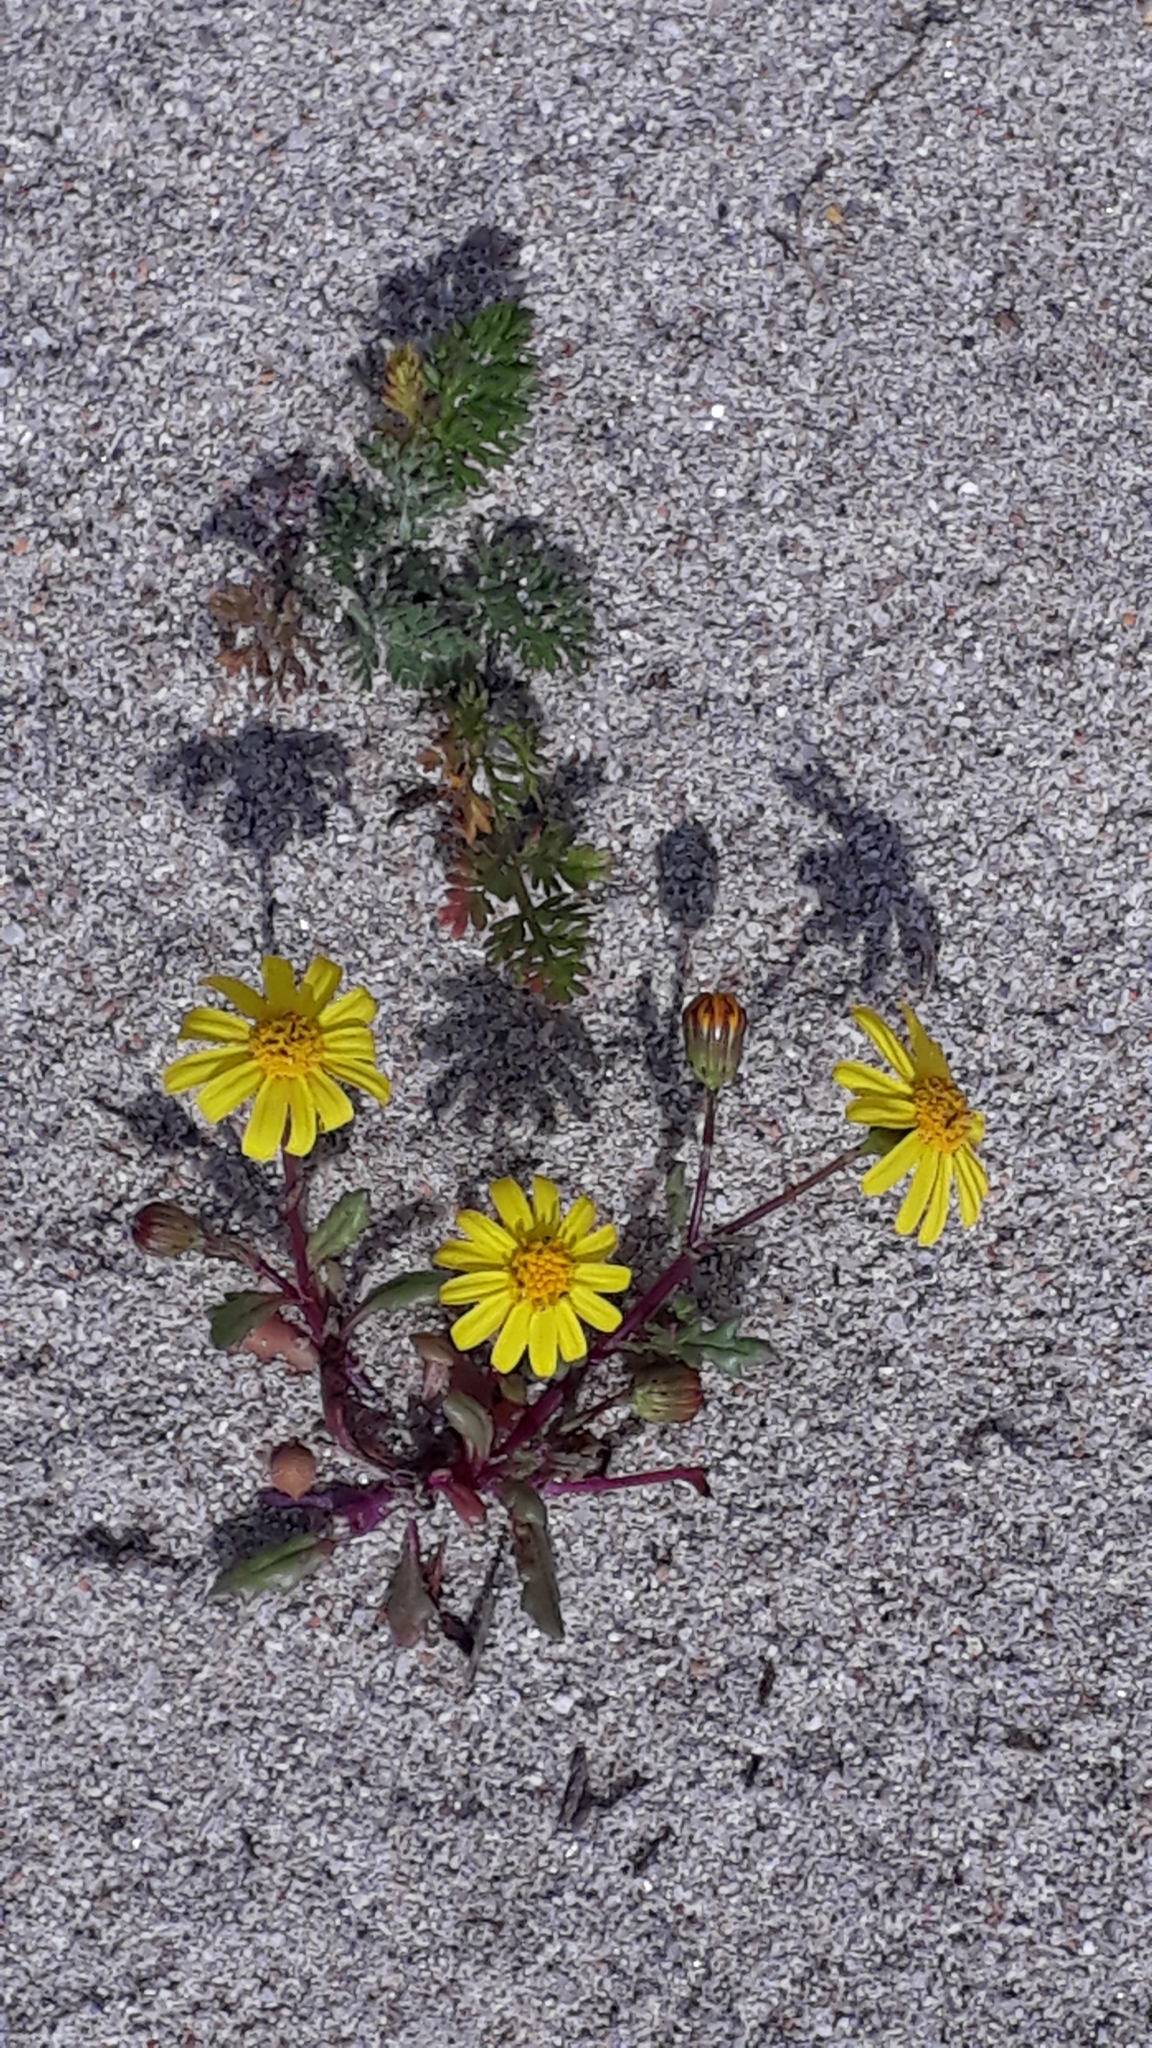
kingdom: Plantae
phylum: Tracheophyta
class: Magnoliopsida
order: Asterales
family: Asteraceae
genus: Senecio
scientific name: Senecio transiens
